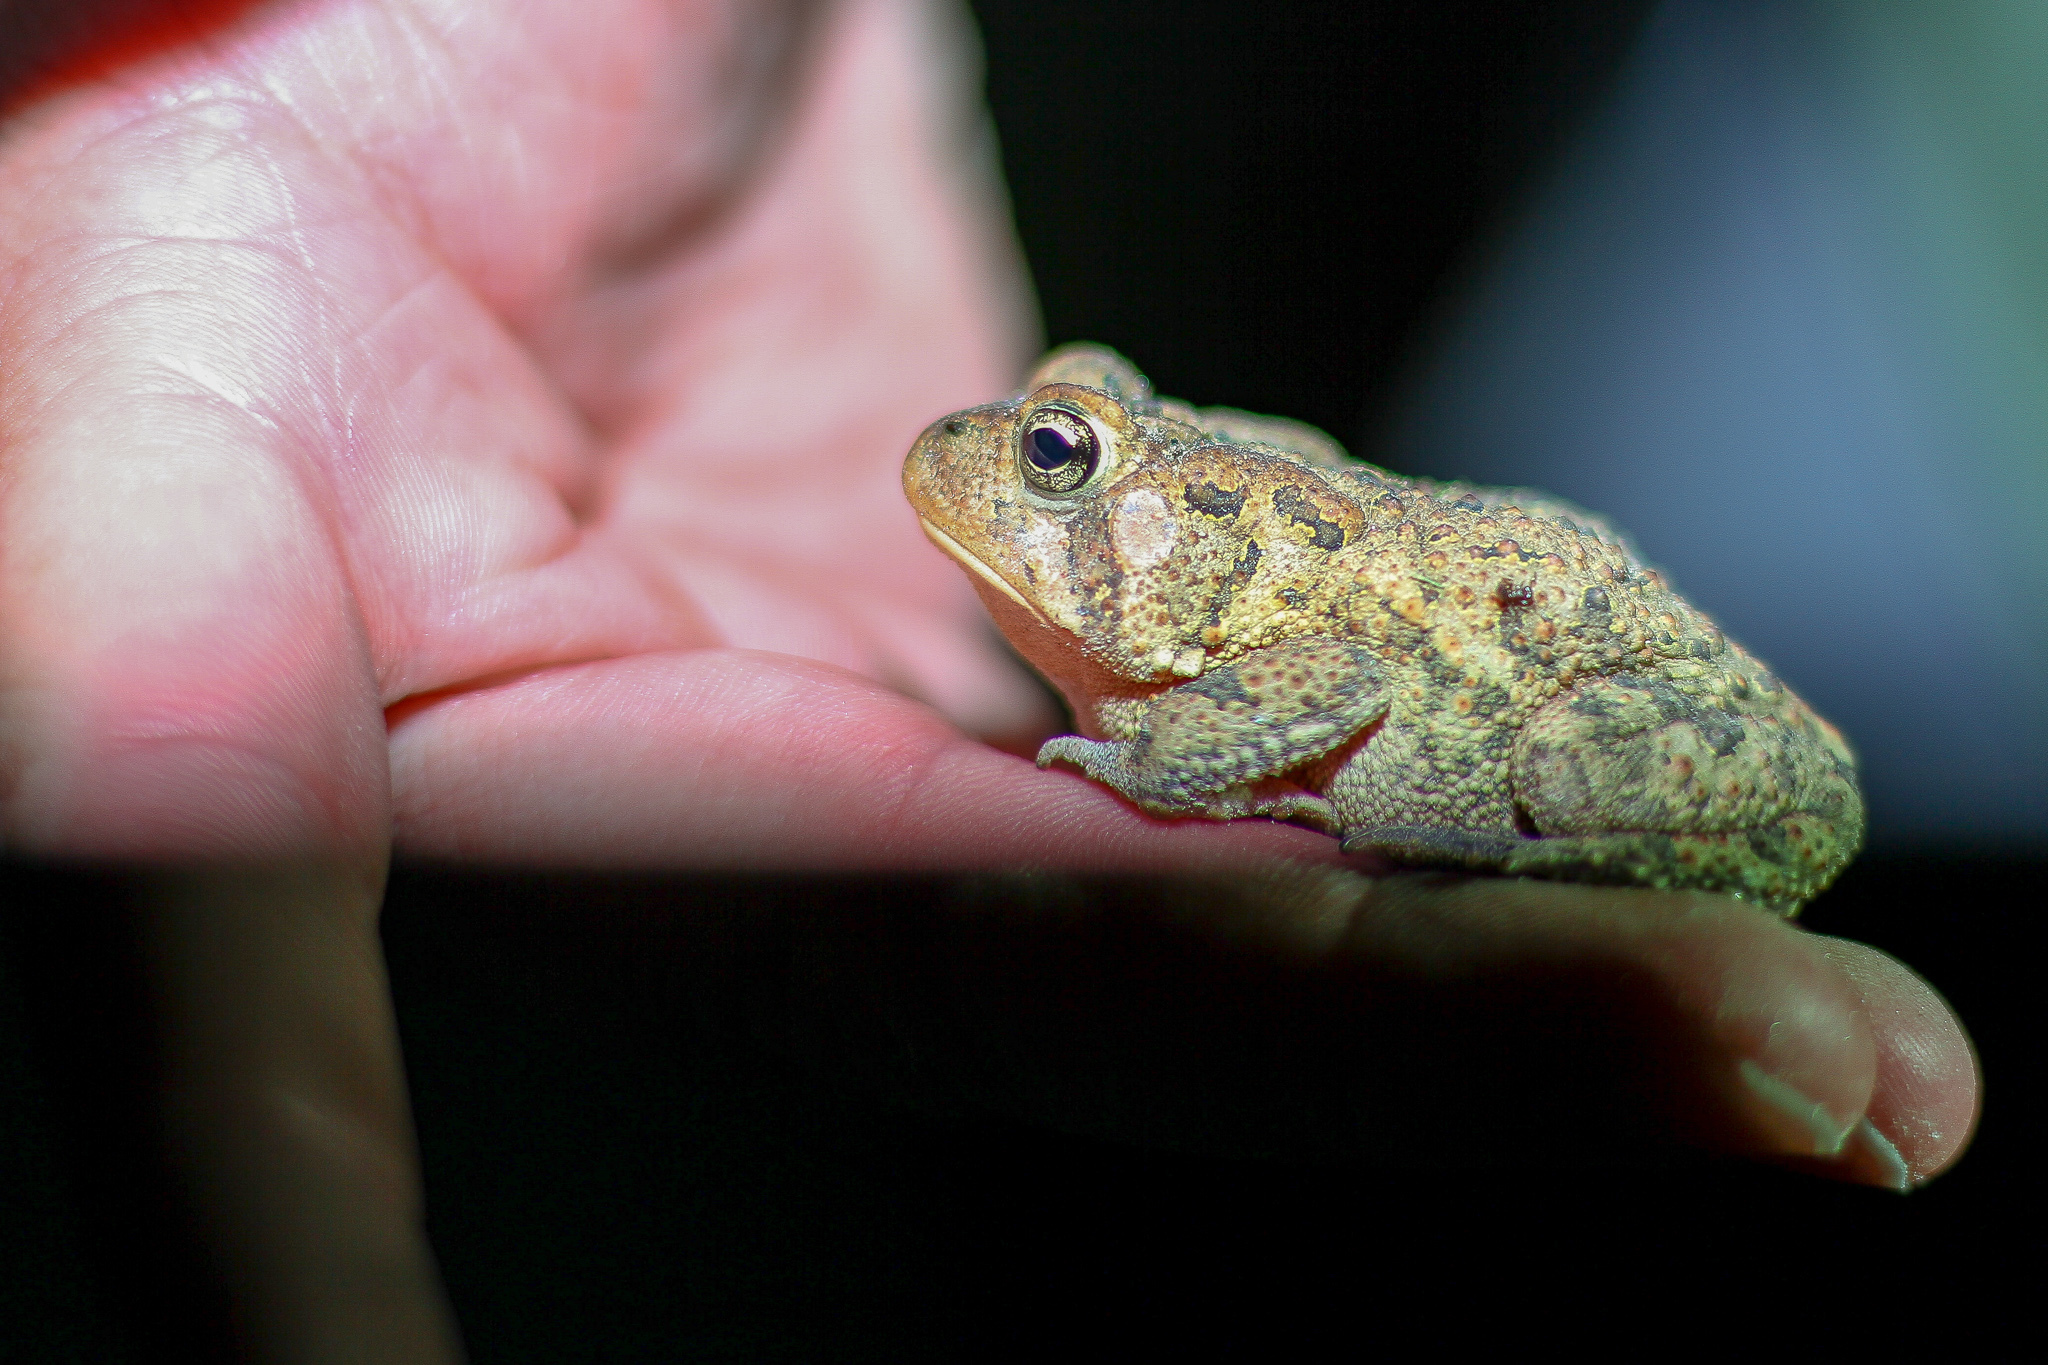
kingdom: Animalia
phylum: Chordata
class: Amphibia
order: Anura
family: Bufonidae
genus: Anaxyrus
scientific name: Anaxyrus terrestris
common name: Southern toad
